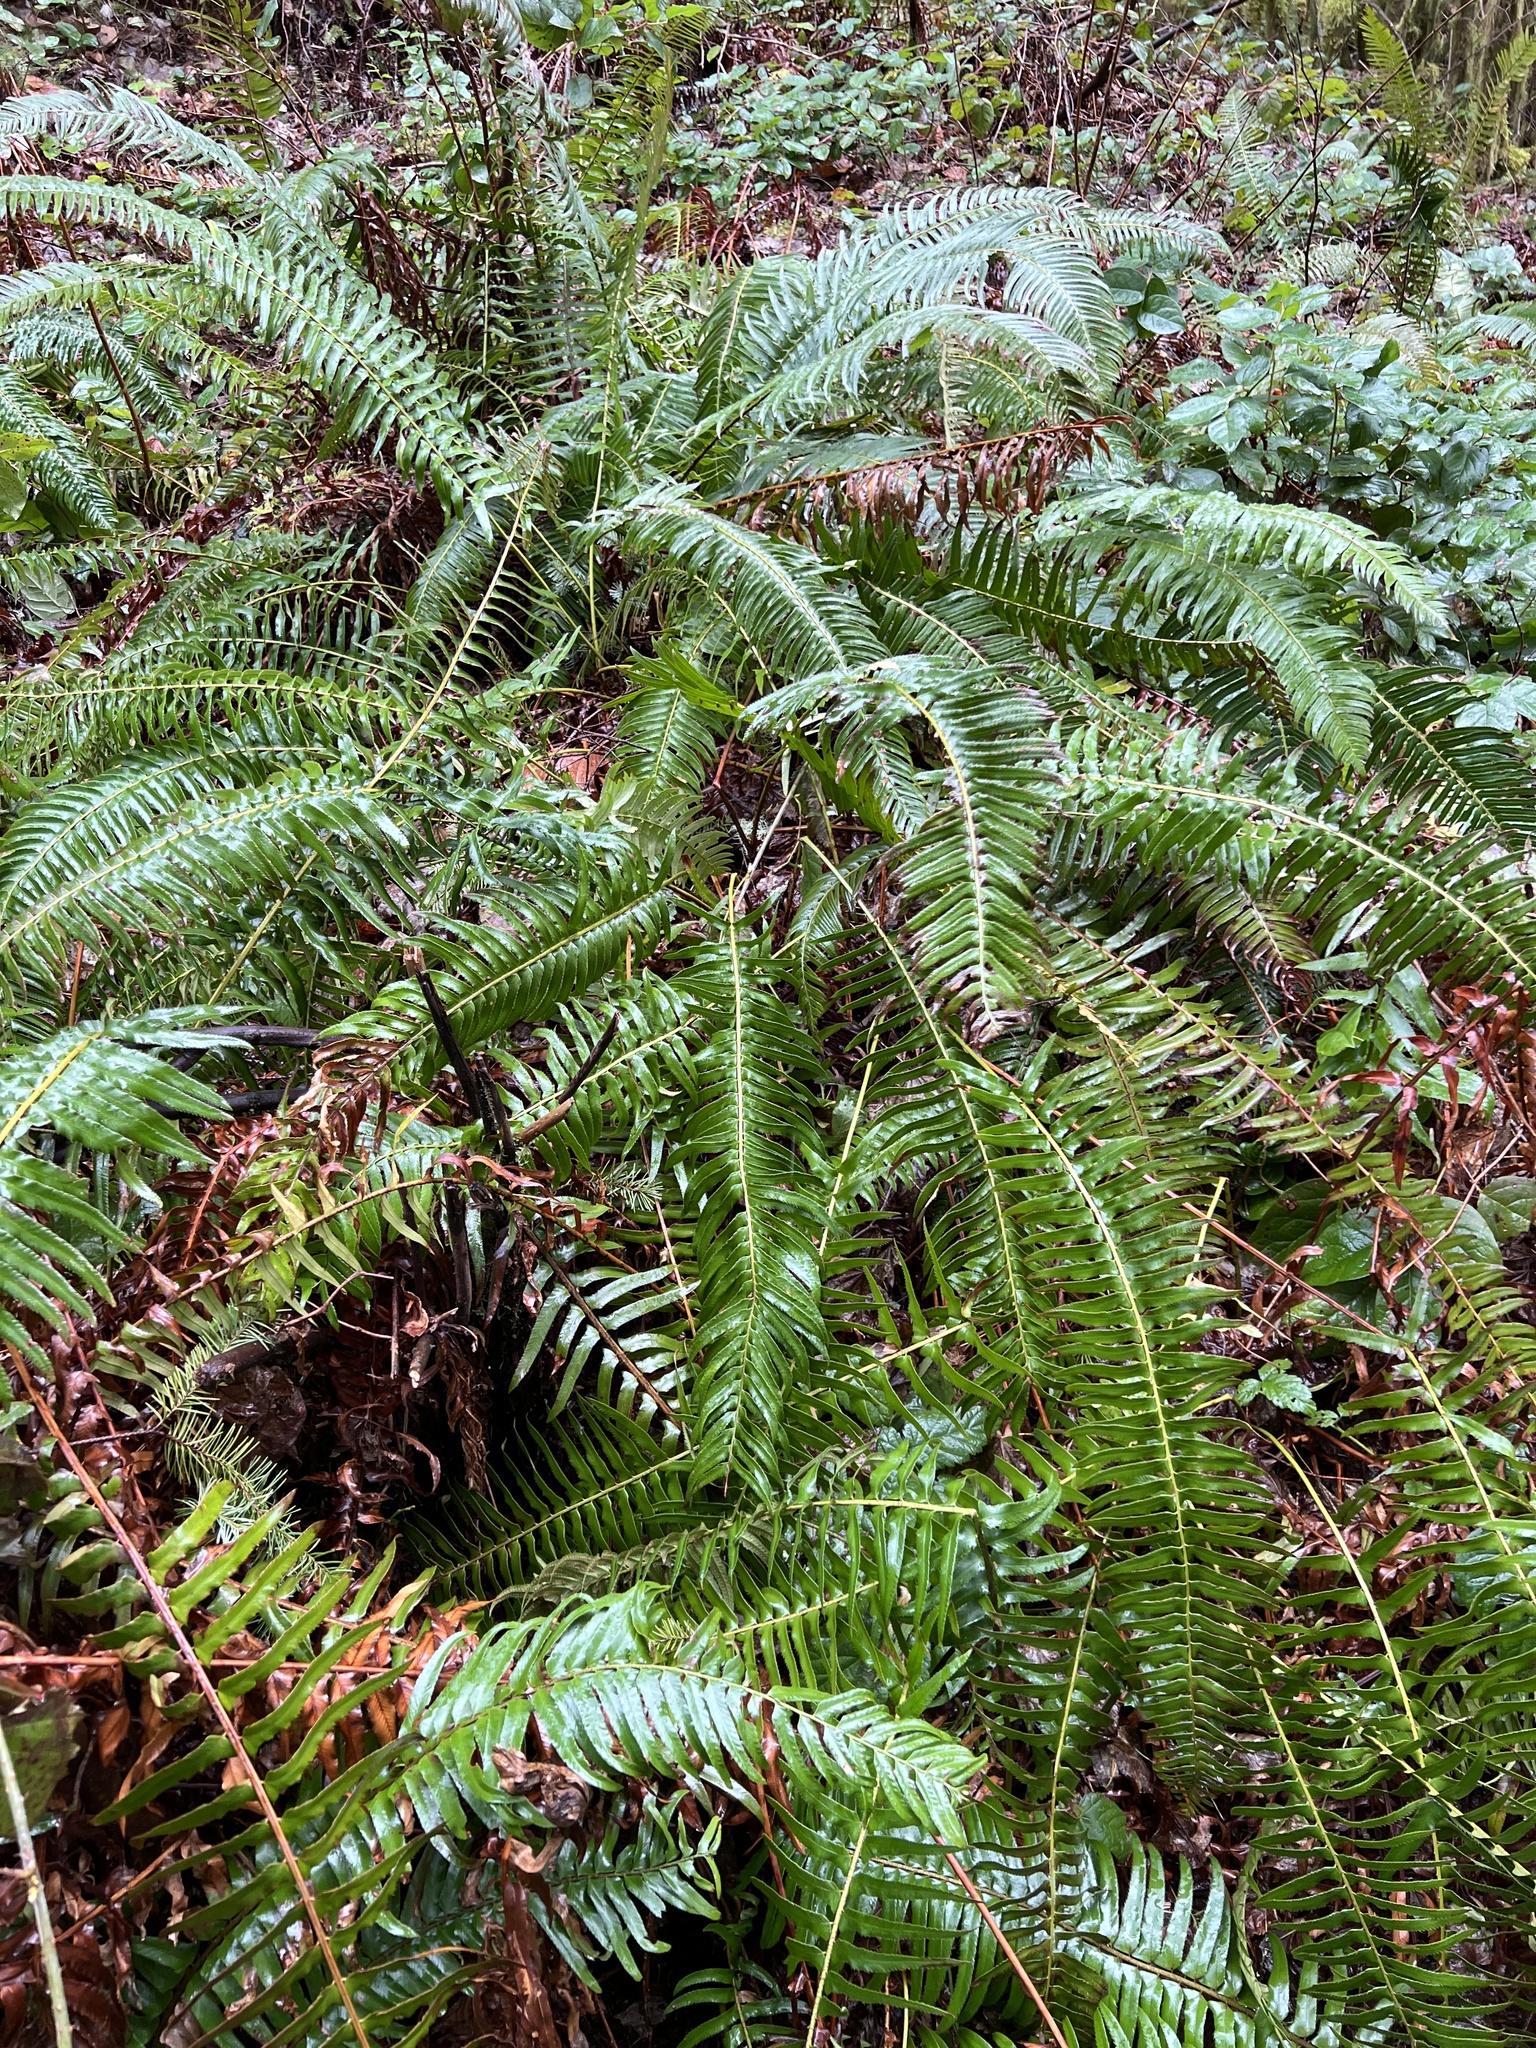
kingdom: Plantae
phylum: Tracheophyta
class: Polypodiopsida
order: Polypodiales
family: Dryopteridaceae
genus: Polystichum
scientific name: Polystichum munitum
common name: Western sword-fern
